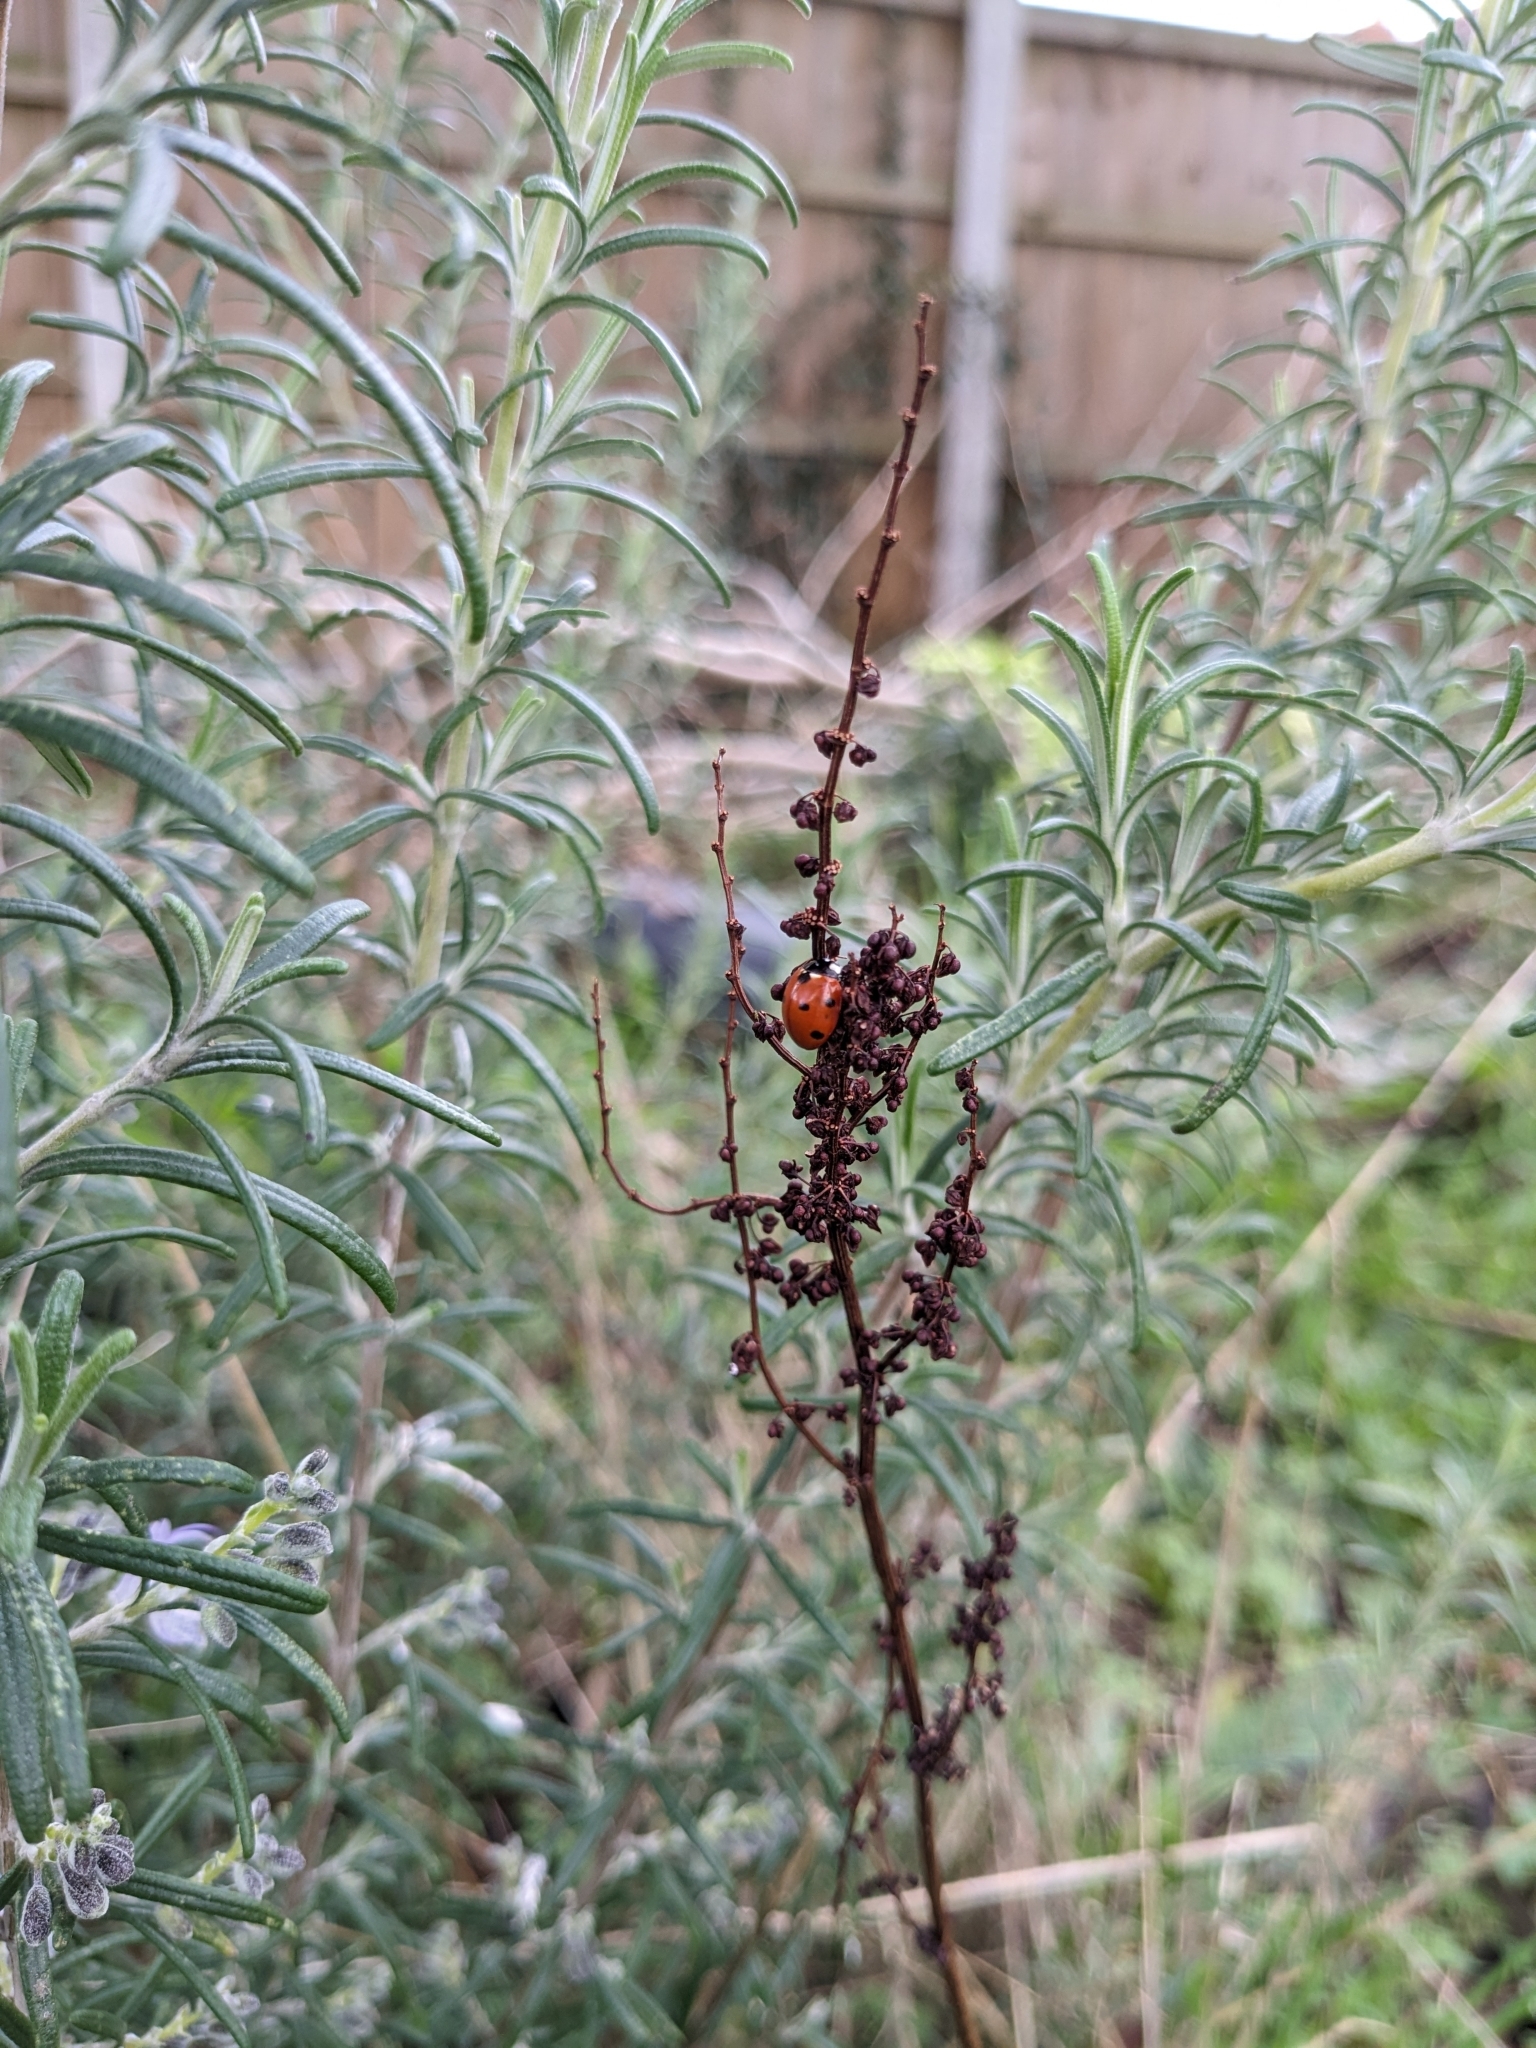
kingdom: Animalia
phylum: Arthropoda
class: Insecta
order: Coleoptera
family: Coccinellidae
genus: Coccinella
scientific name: Coccinella septempunctata
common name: Sevenspotted lady beetle
